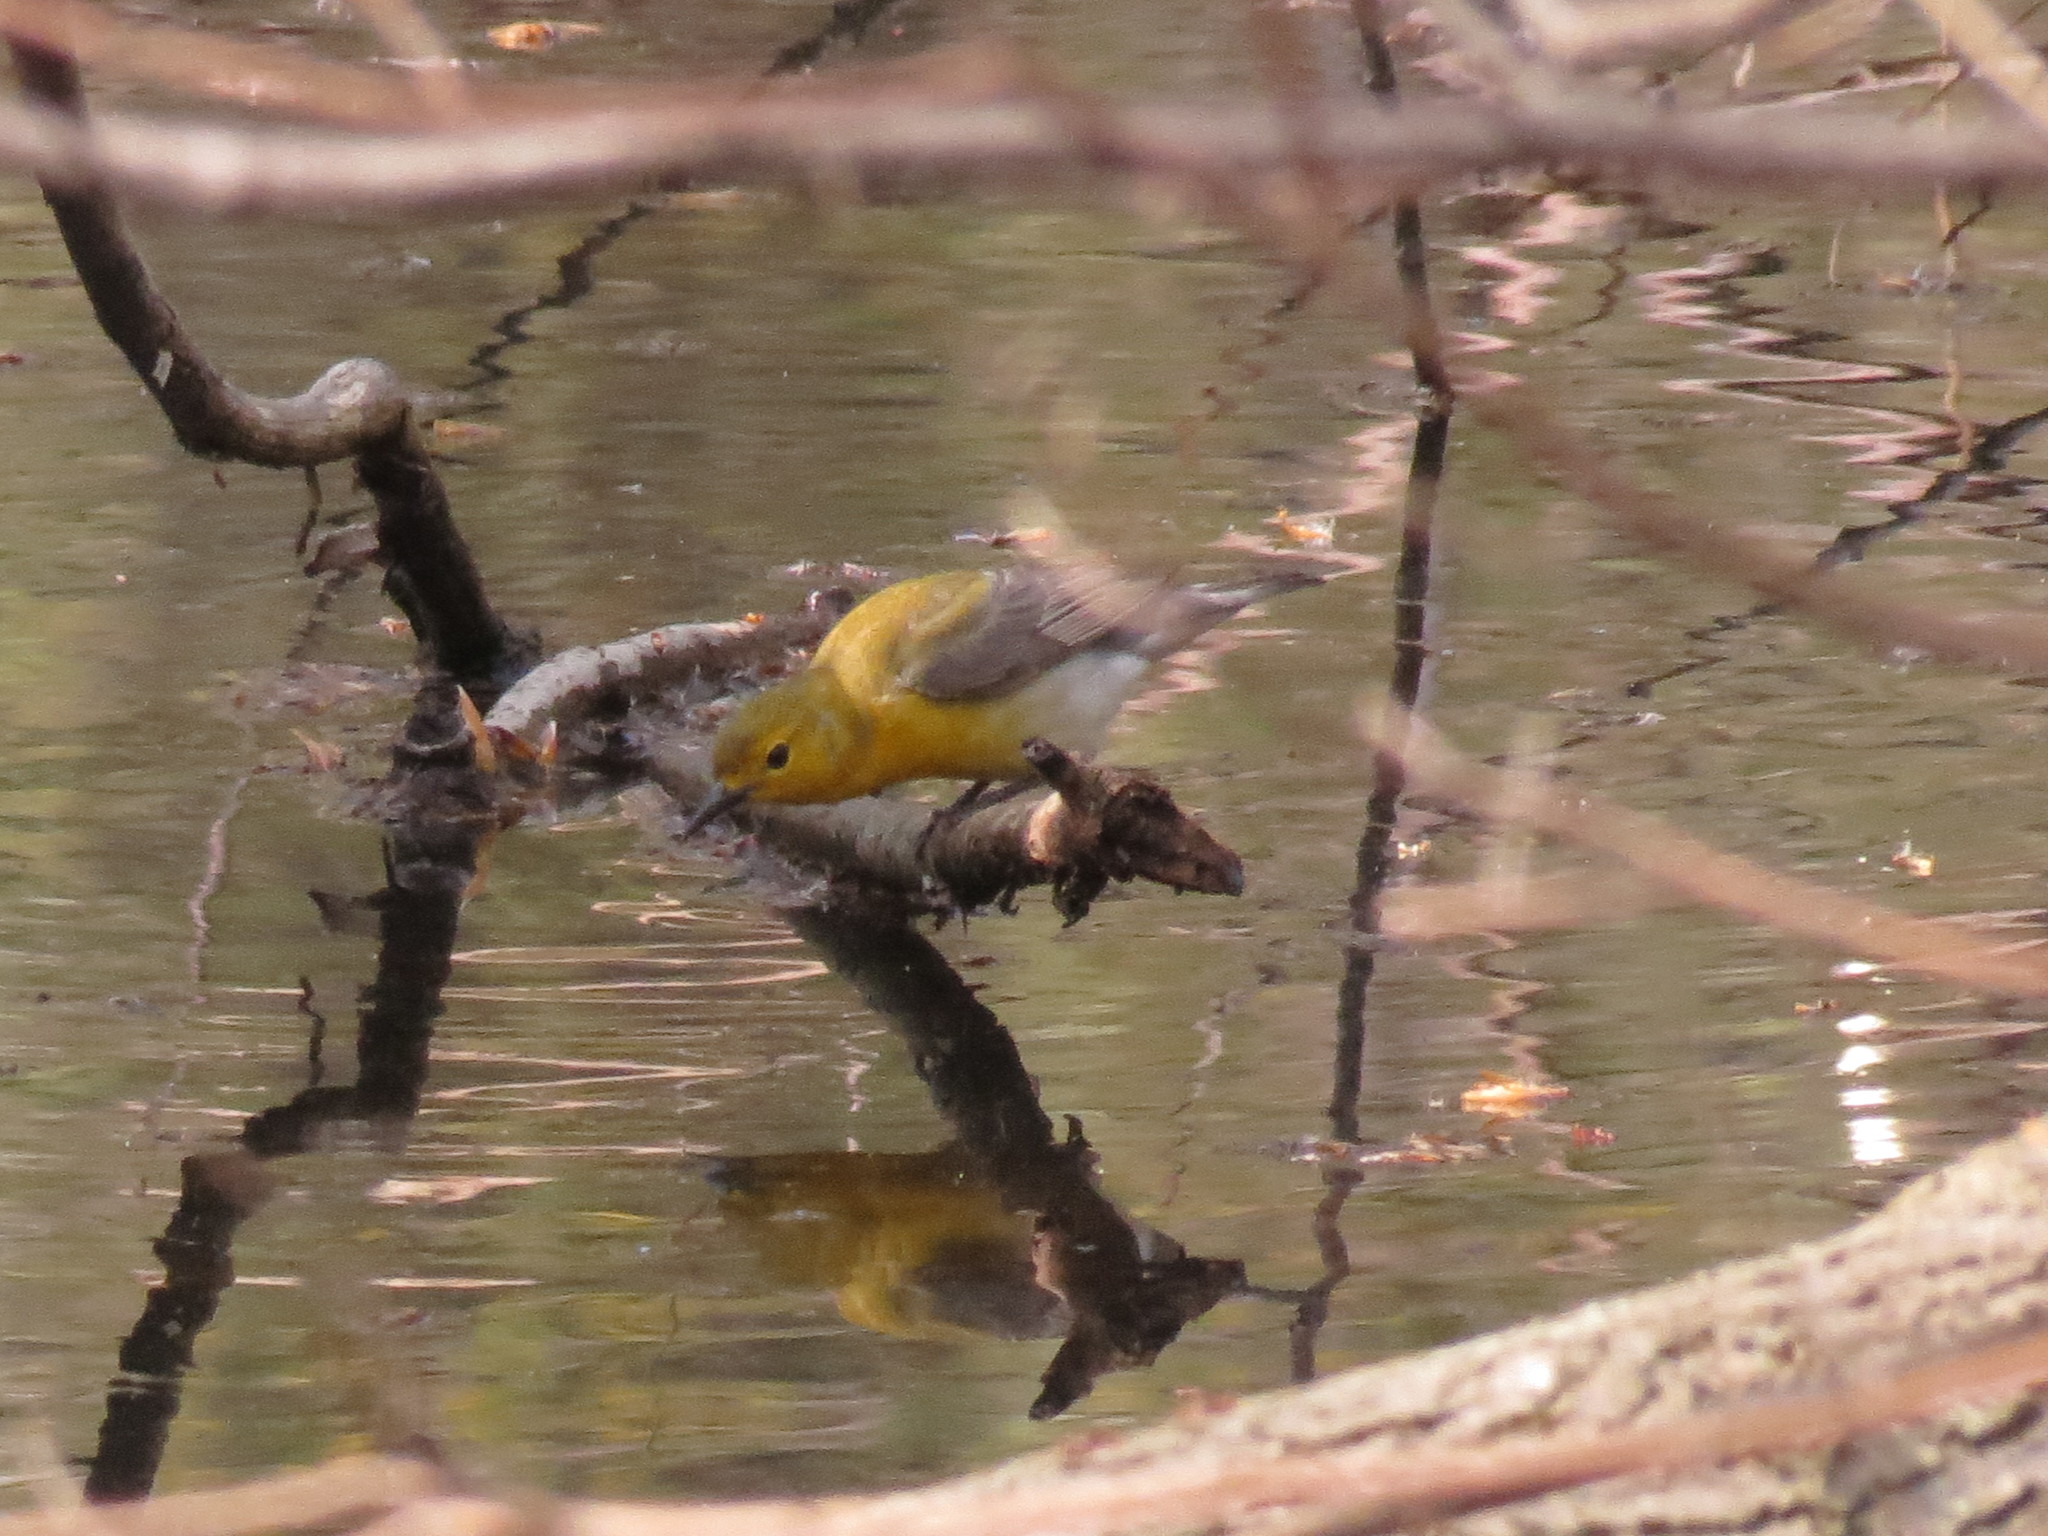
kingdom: Animalia
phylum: Chordata
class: Aves
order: Passeriformes
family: Parulidae
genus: Protonotaria
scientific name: Protonotaria citrea
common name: Prothonotary warbler
